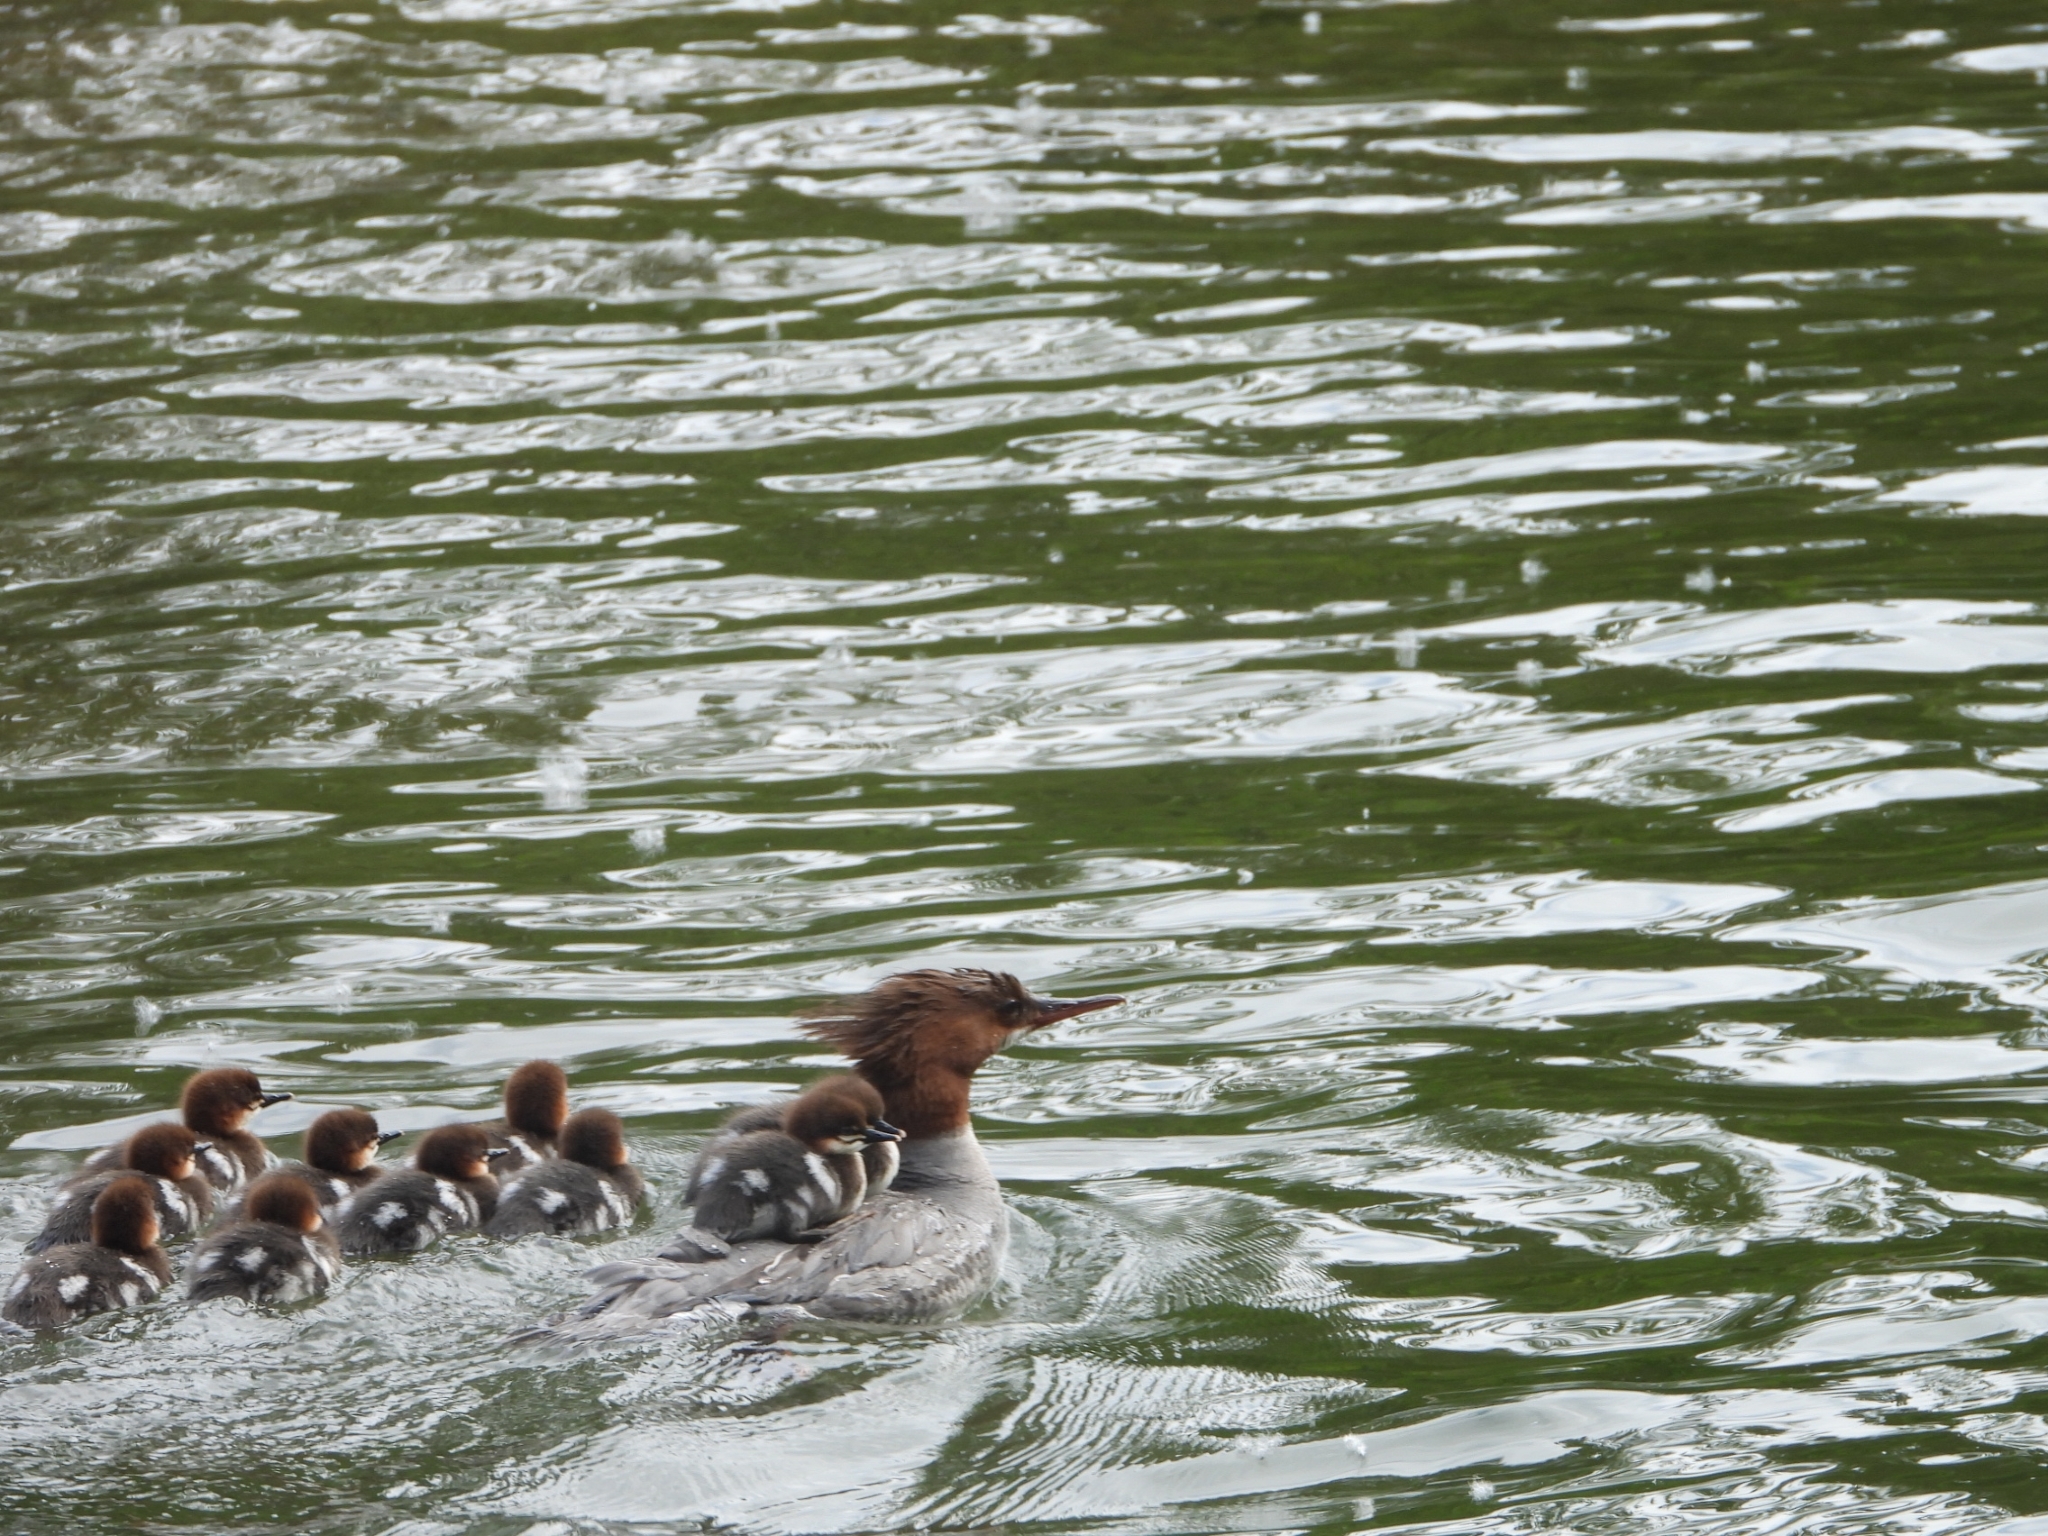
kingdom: Animalia
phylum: Chordata
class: Aves
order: Anseriformes
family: Anatidae
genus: Mergus
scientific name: Mergus merganser
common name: Common merganser
